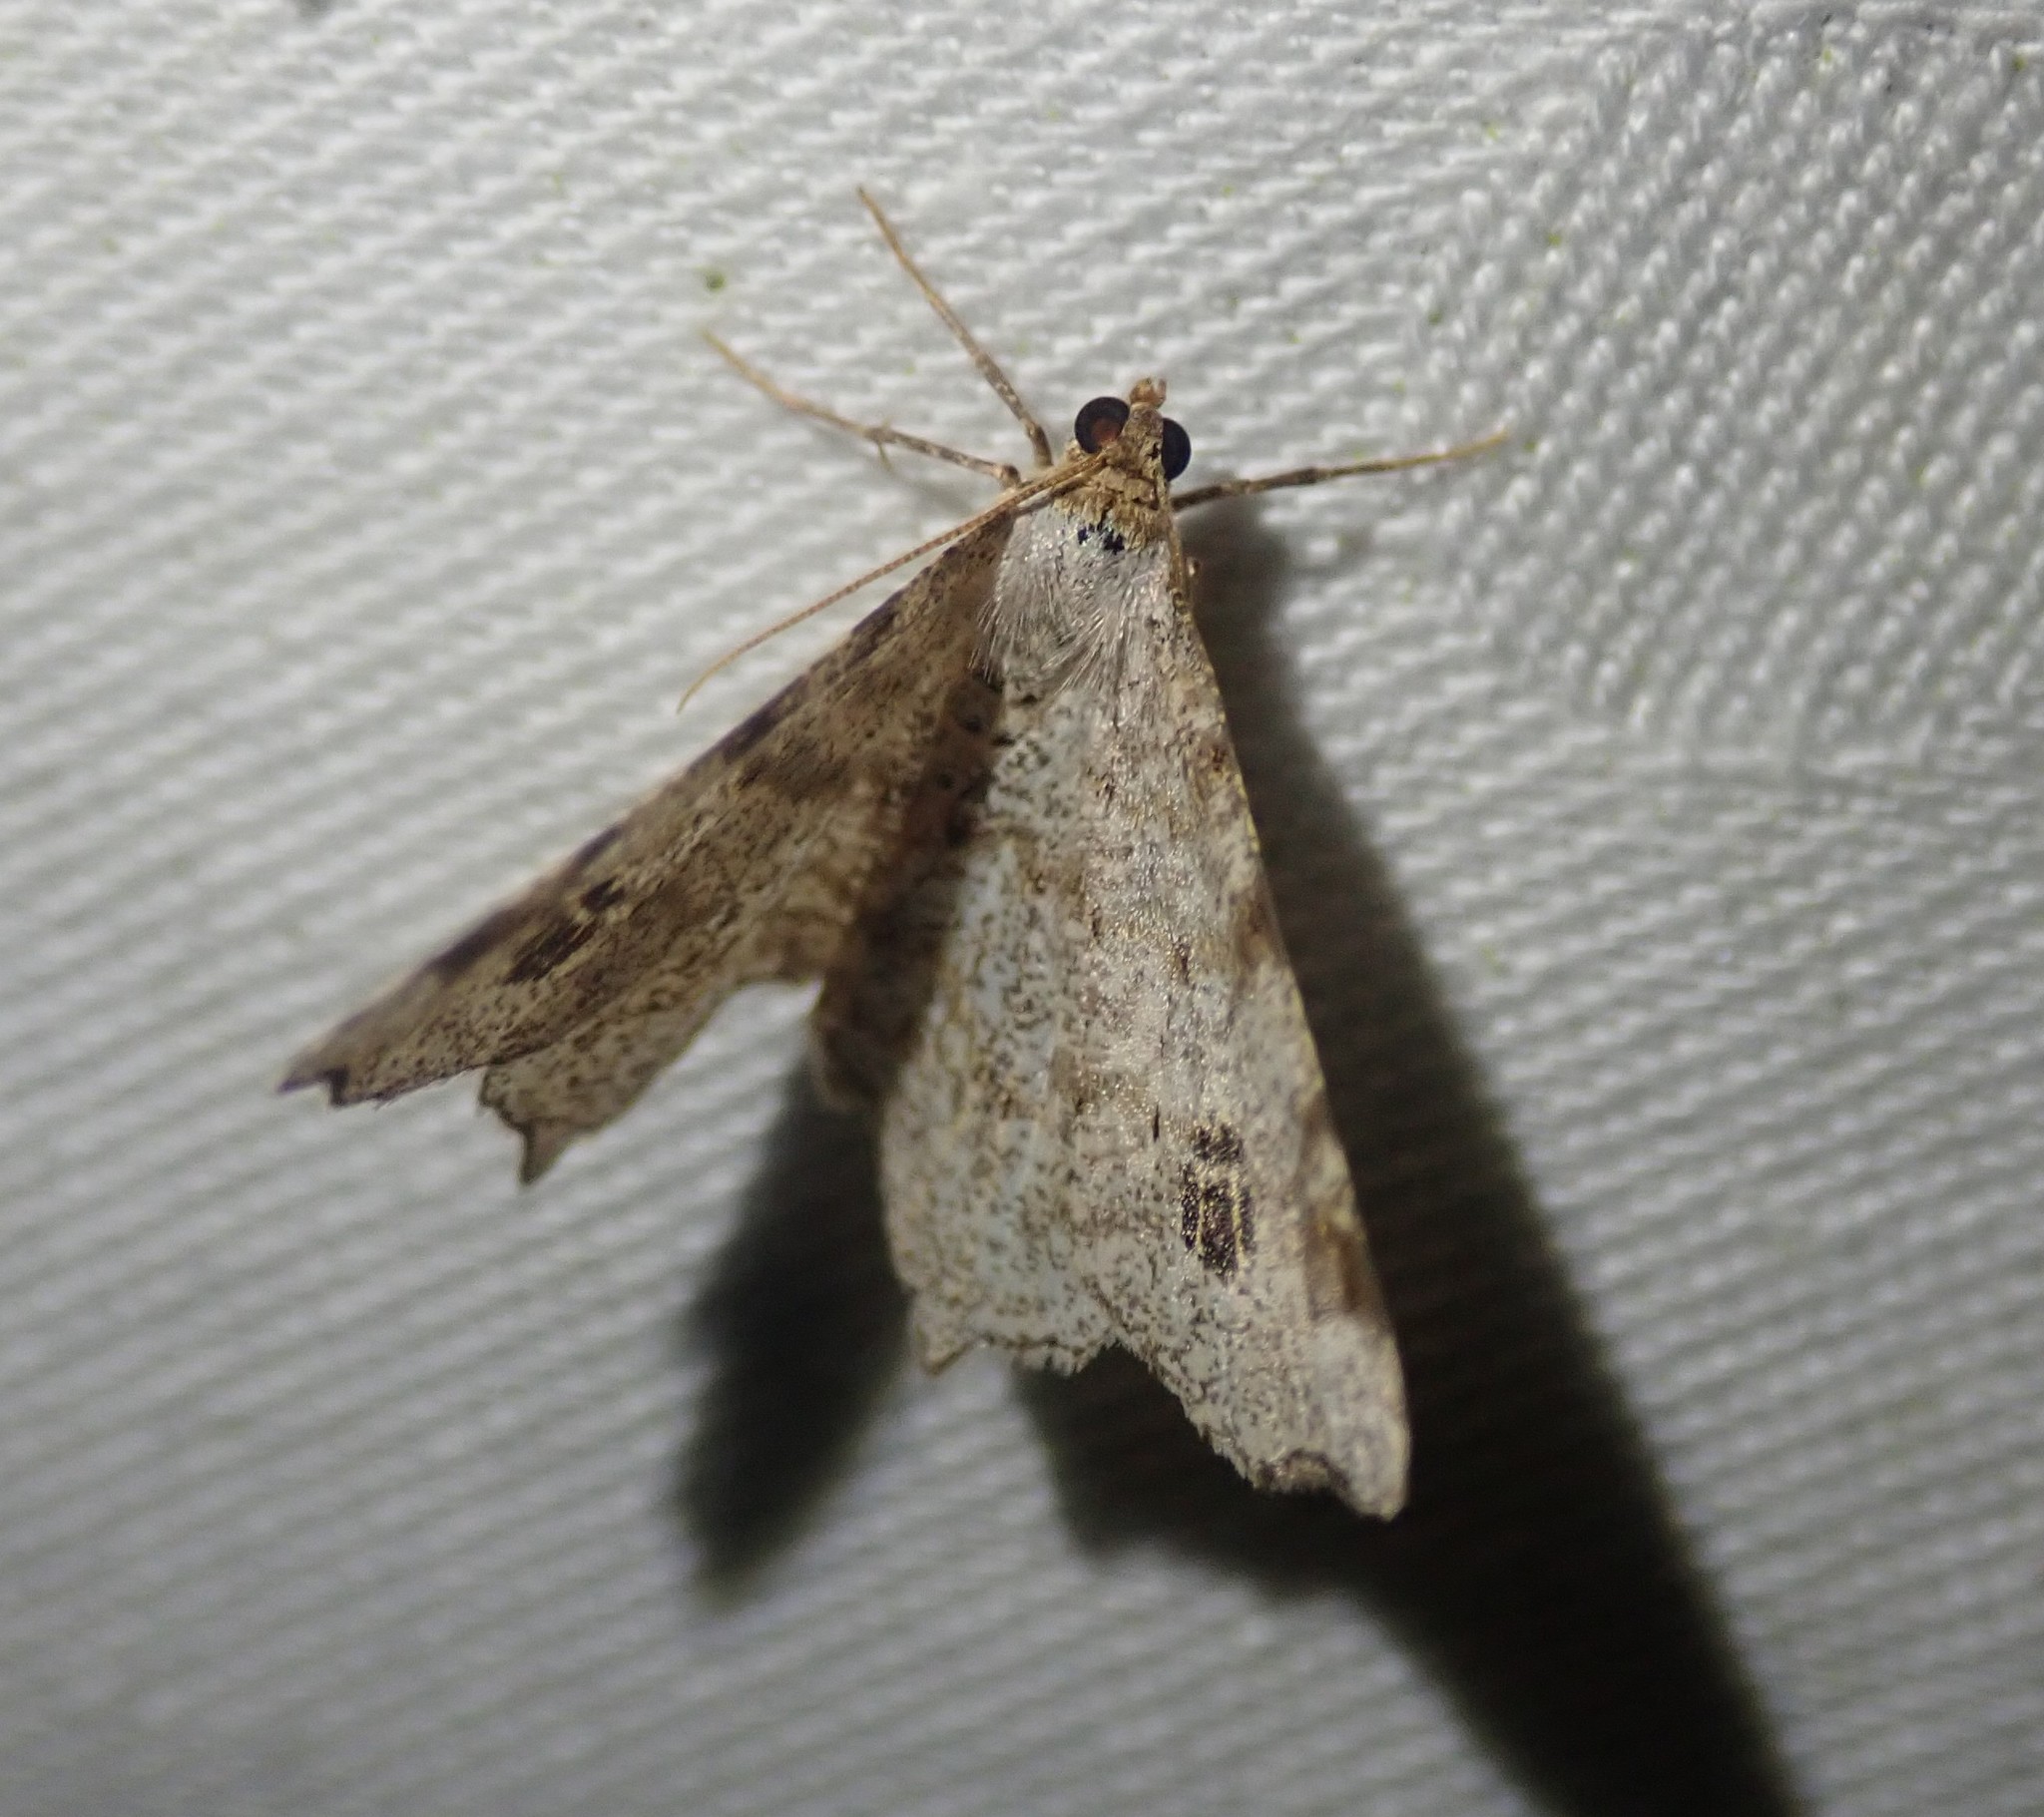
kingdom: Animalia
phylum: Arthropoda
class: Insecta
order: Lepidoptera
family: Geometridae
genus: Macaria
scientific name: Macaria notata
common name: Peacock moth
